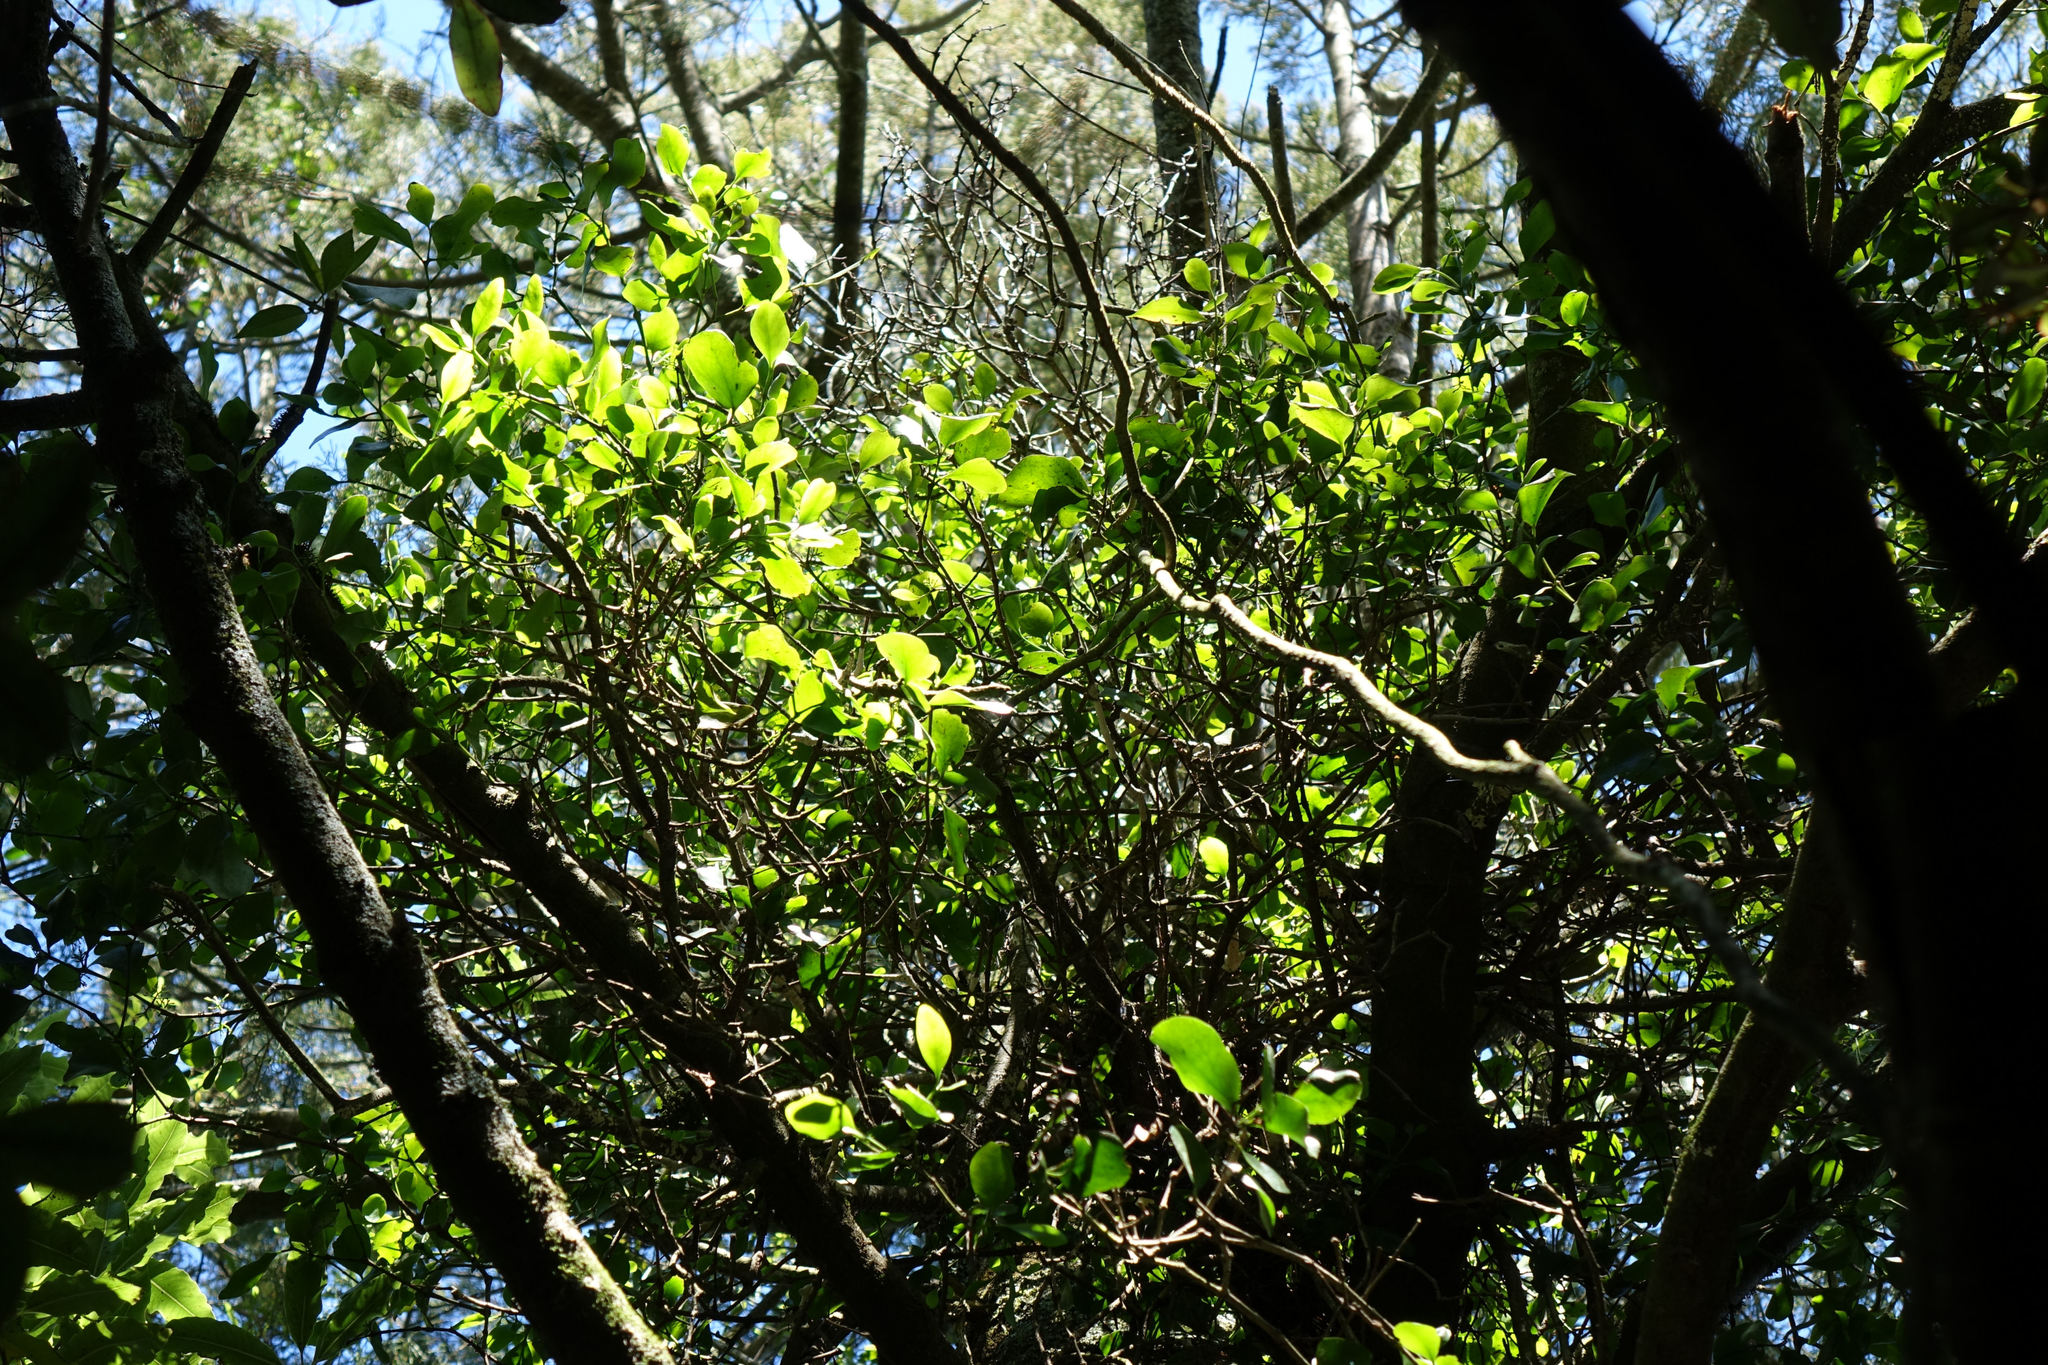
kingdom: Plantae
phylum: Tracheophyta
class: Magnoliopsida
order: Santalales
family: Loranthaceae
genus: Ileostylus
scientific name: Ileostylus micranthus
